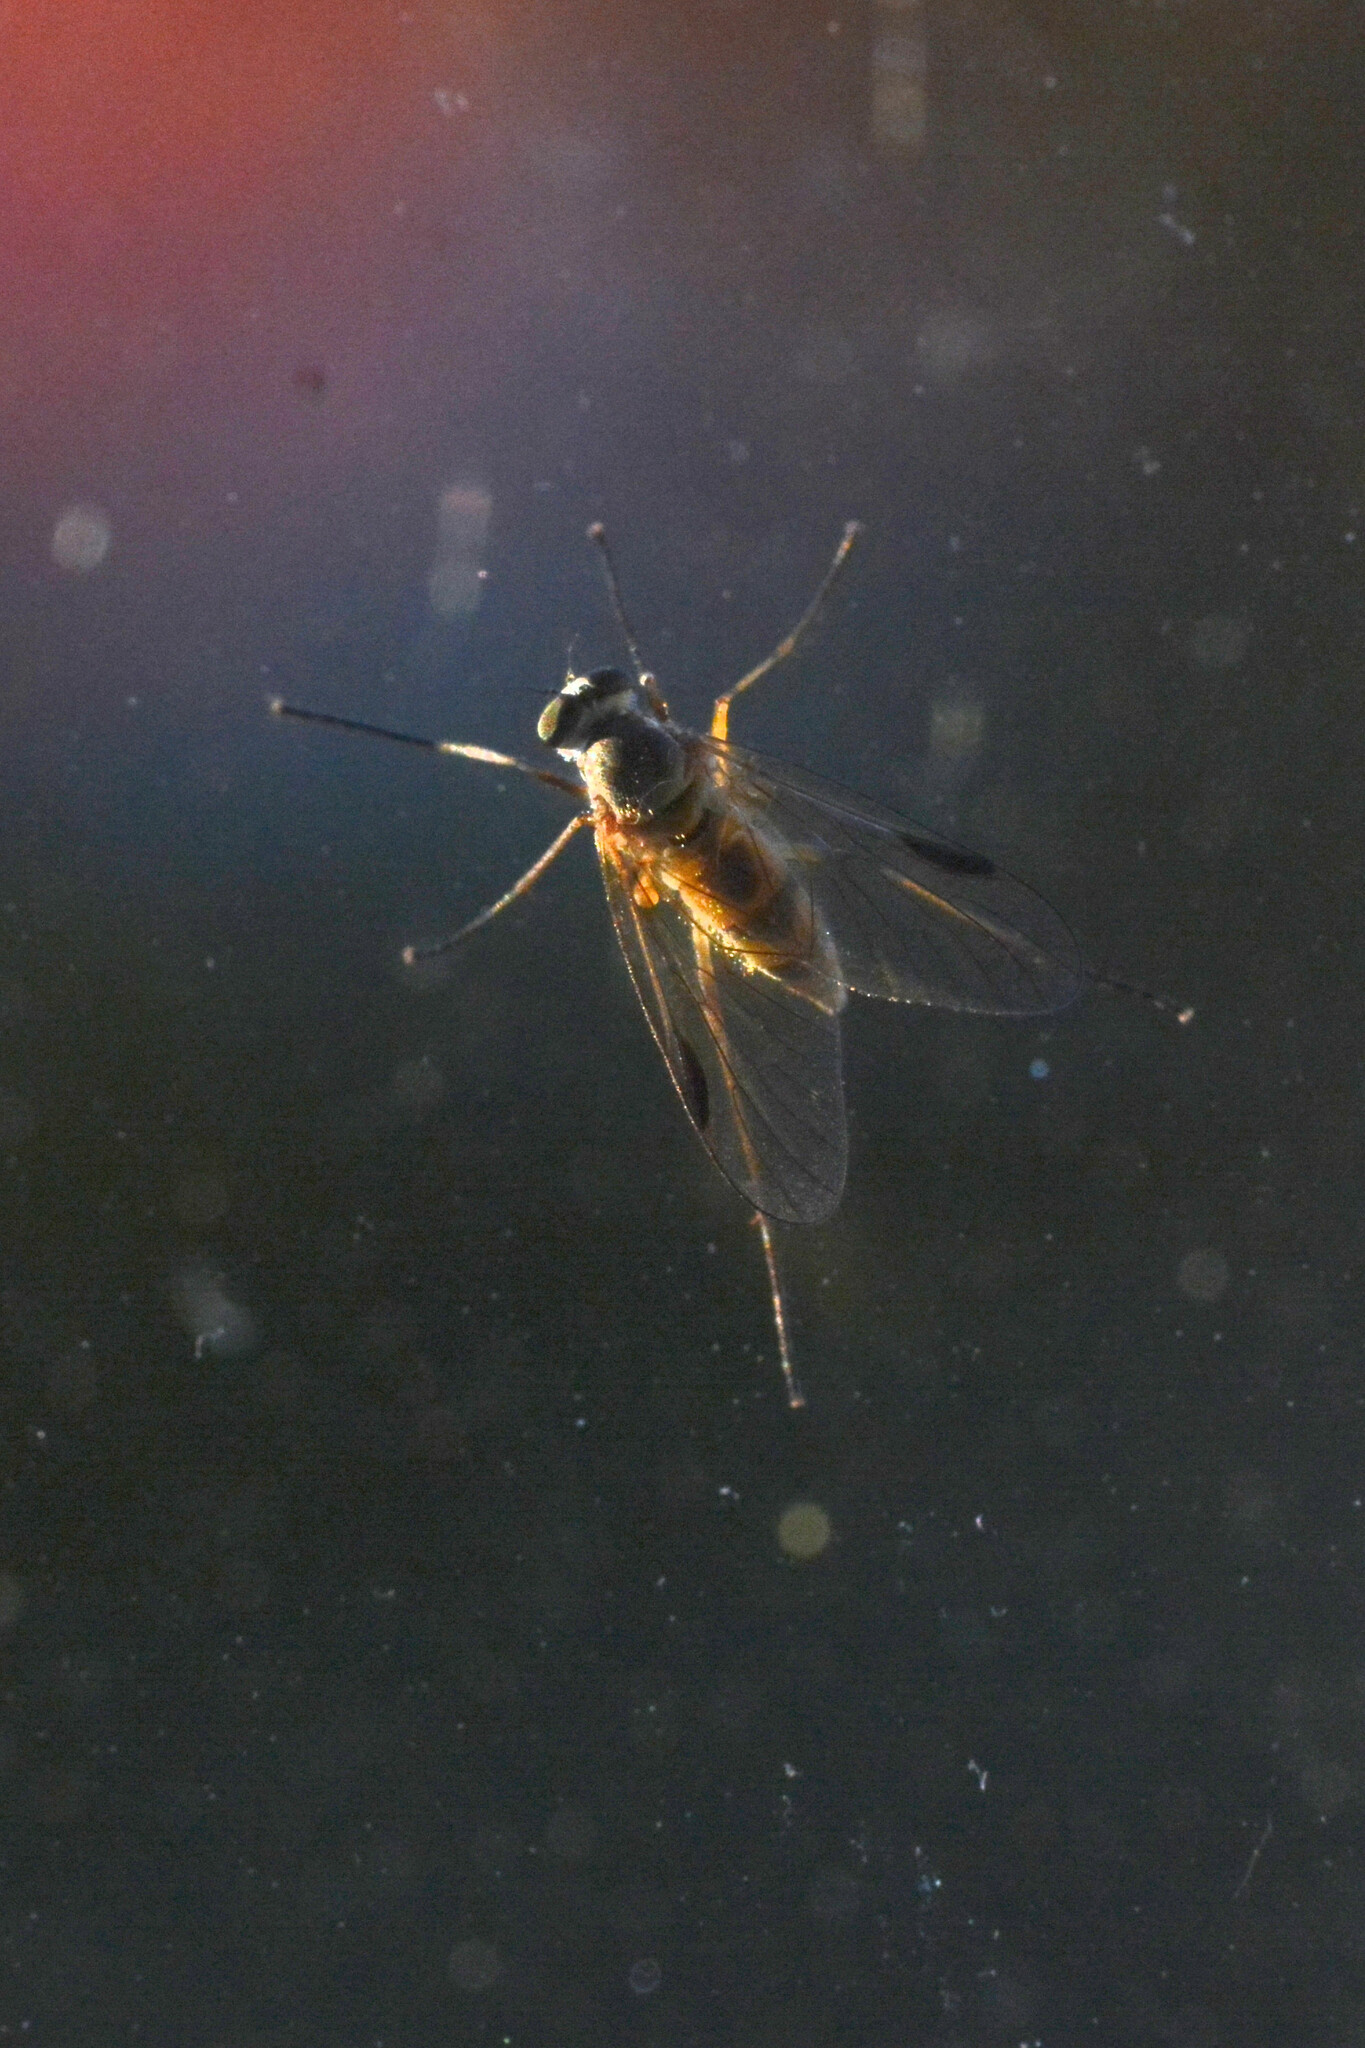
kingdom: Animalia
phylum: Arthropoda
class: Insecta
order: Diptera
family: Rhagionidae
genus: Rhagio
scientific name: Rhagio lineola
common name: Small fleck-winged snipefly
